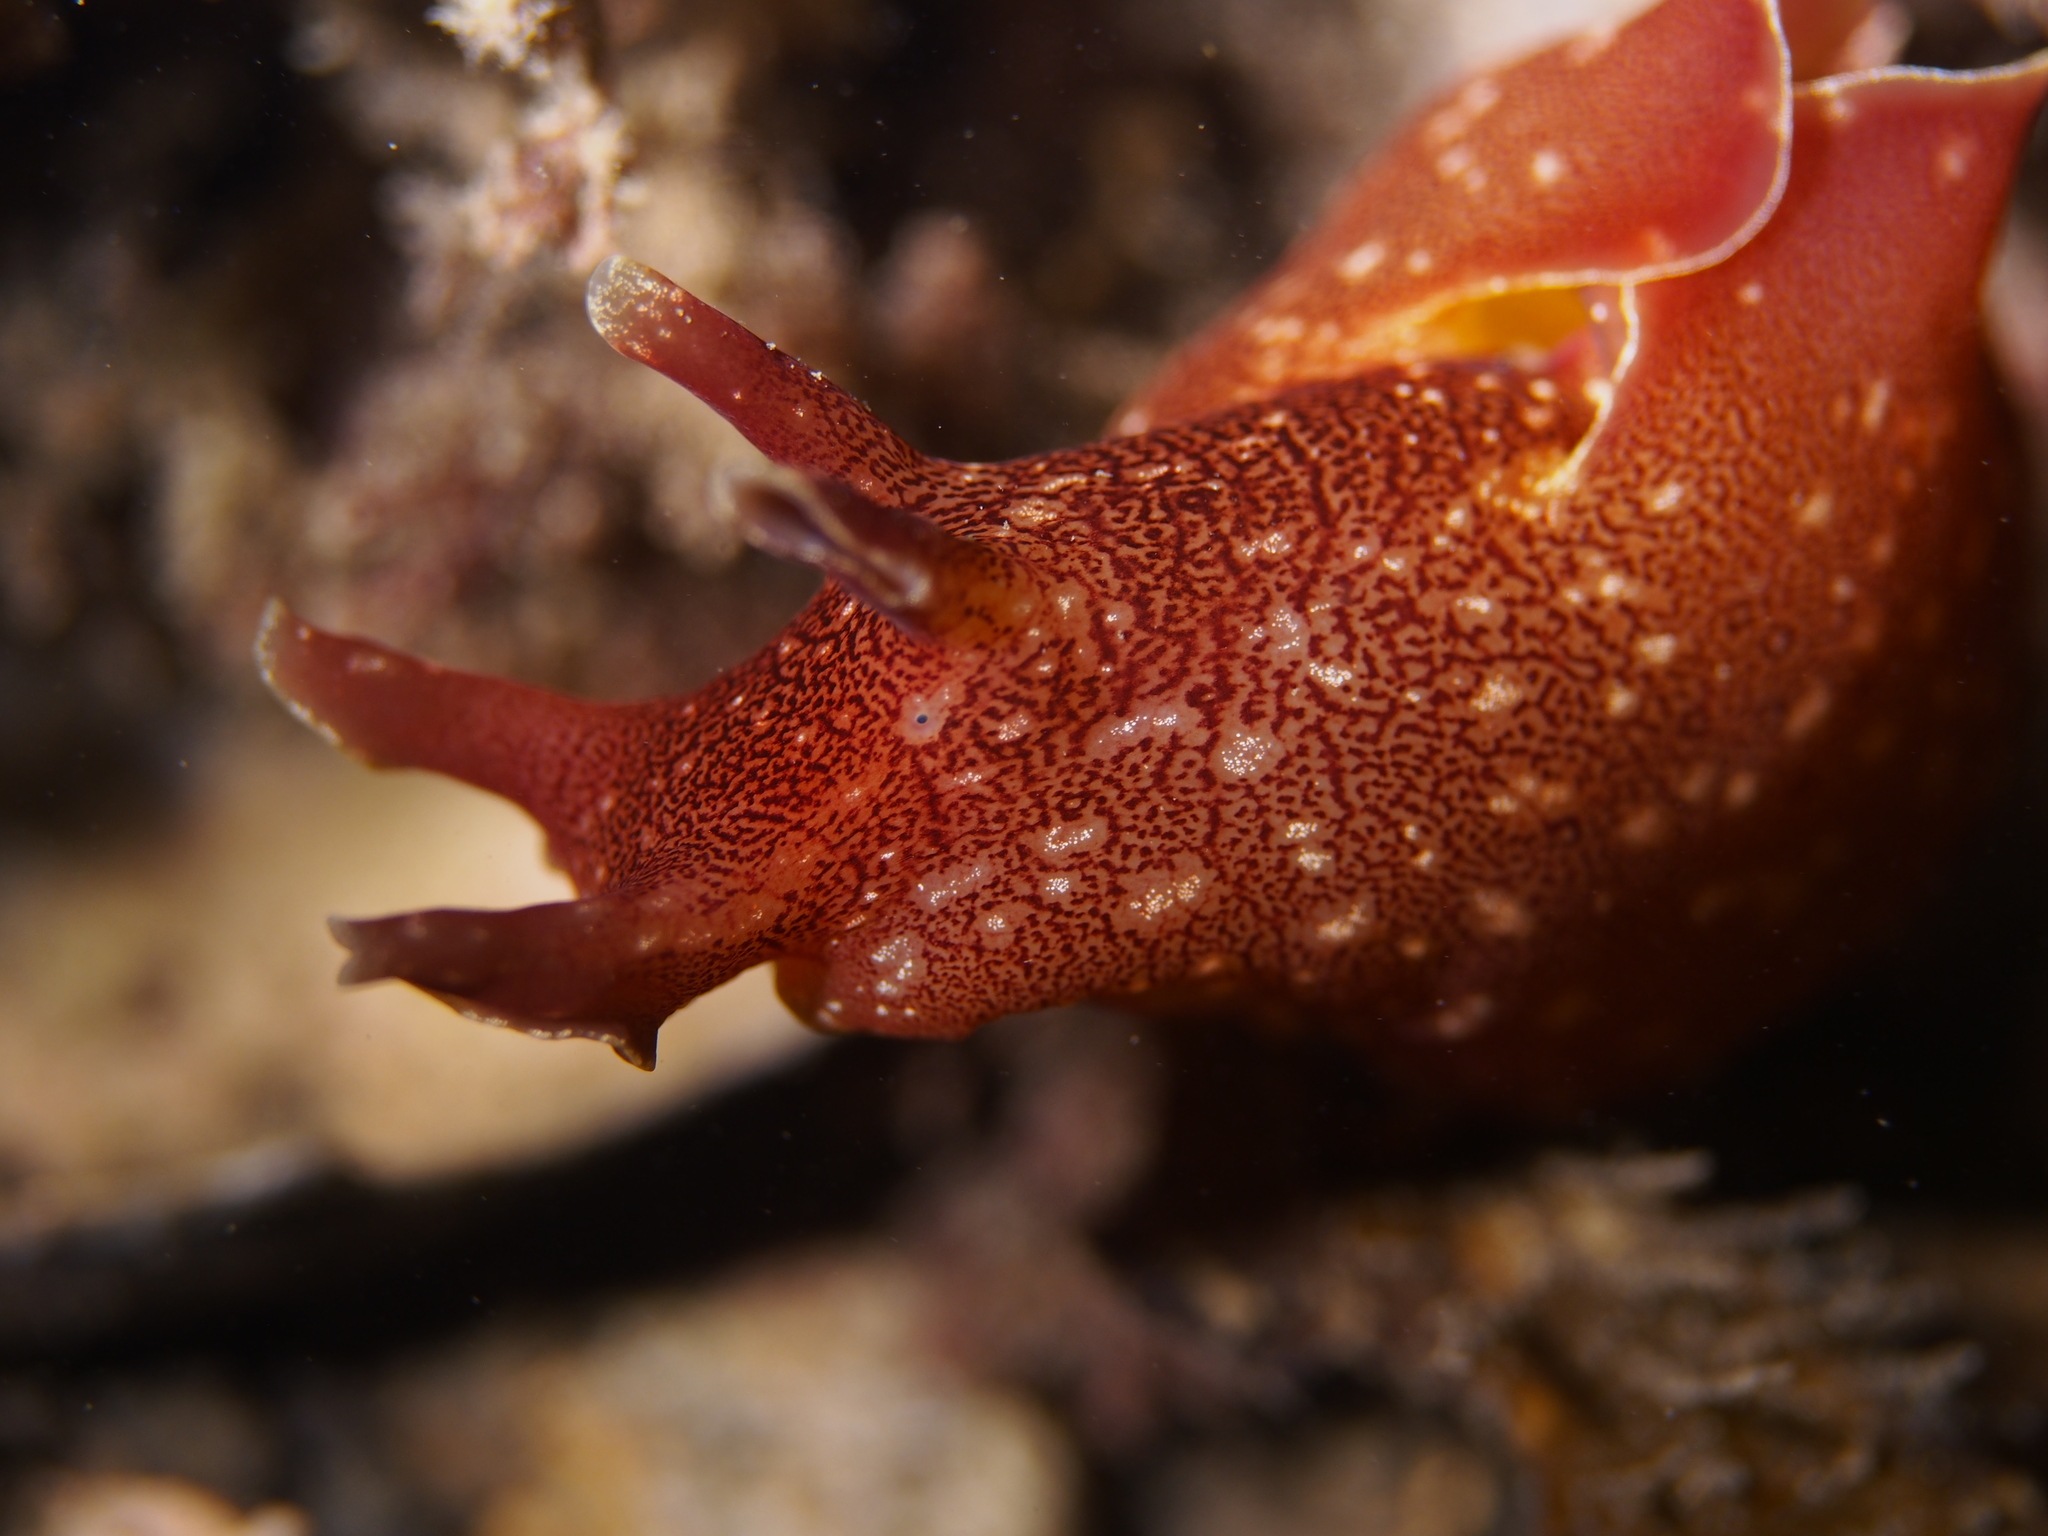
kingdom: Animalia
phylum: Mollusca
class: Gastropoda
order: Aplysiida
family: Aplysiidae
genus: Aplysia
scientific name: Aplysia punctata
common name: Common sea hare
